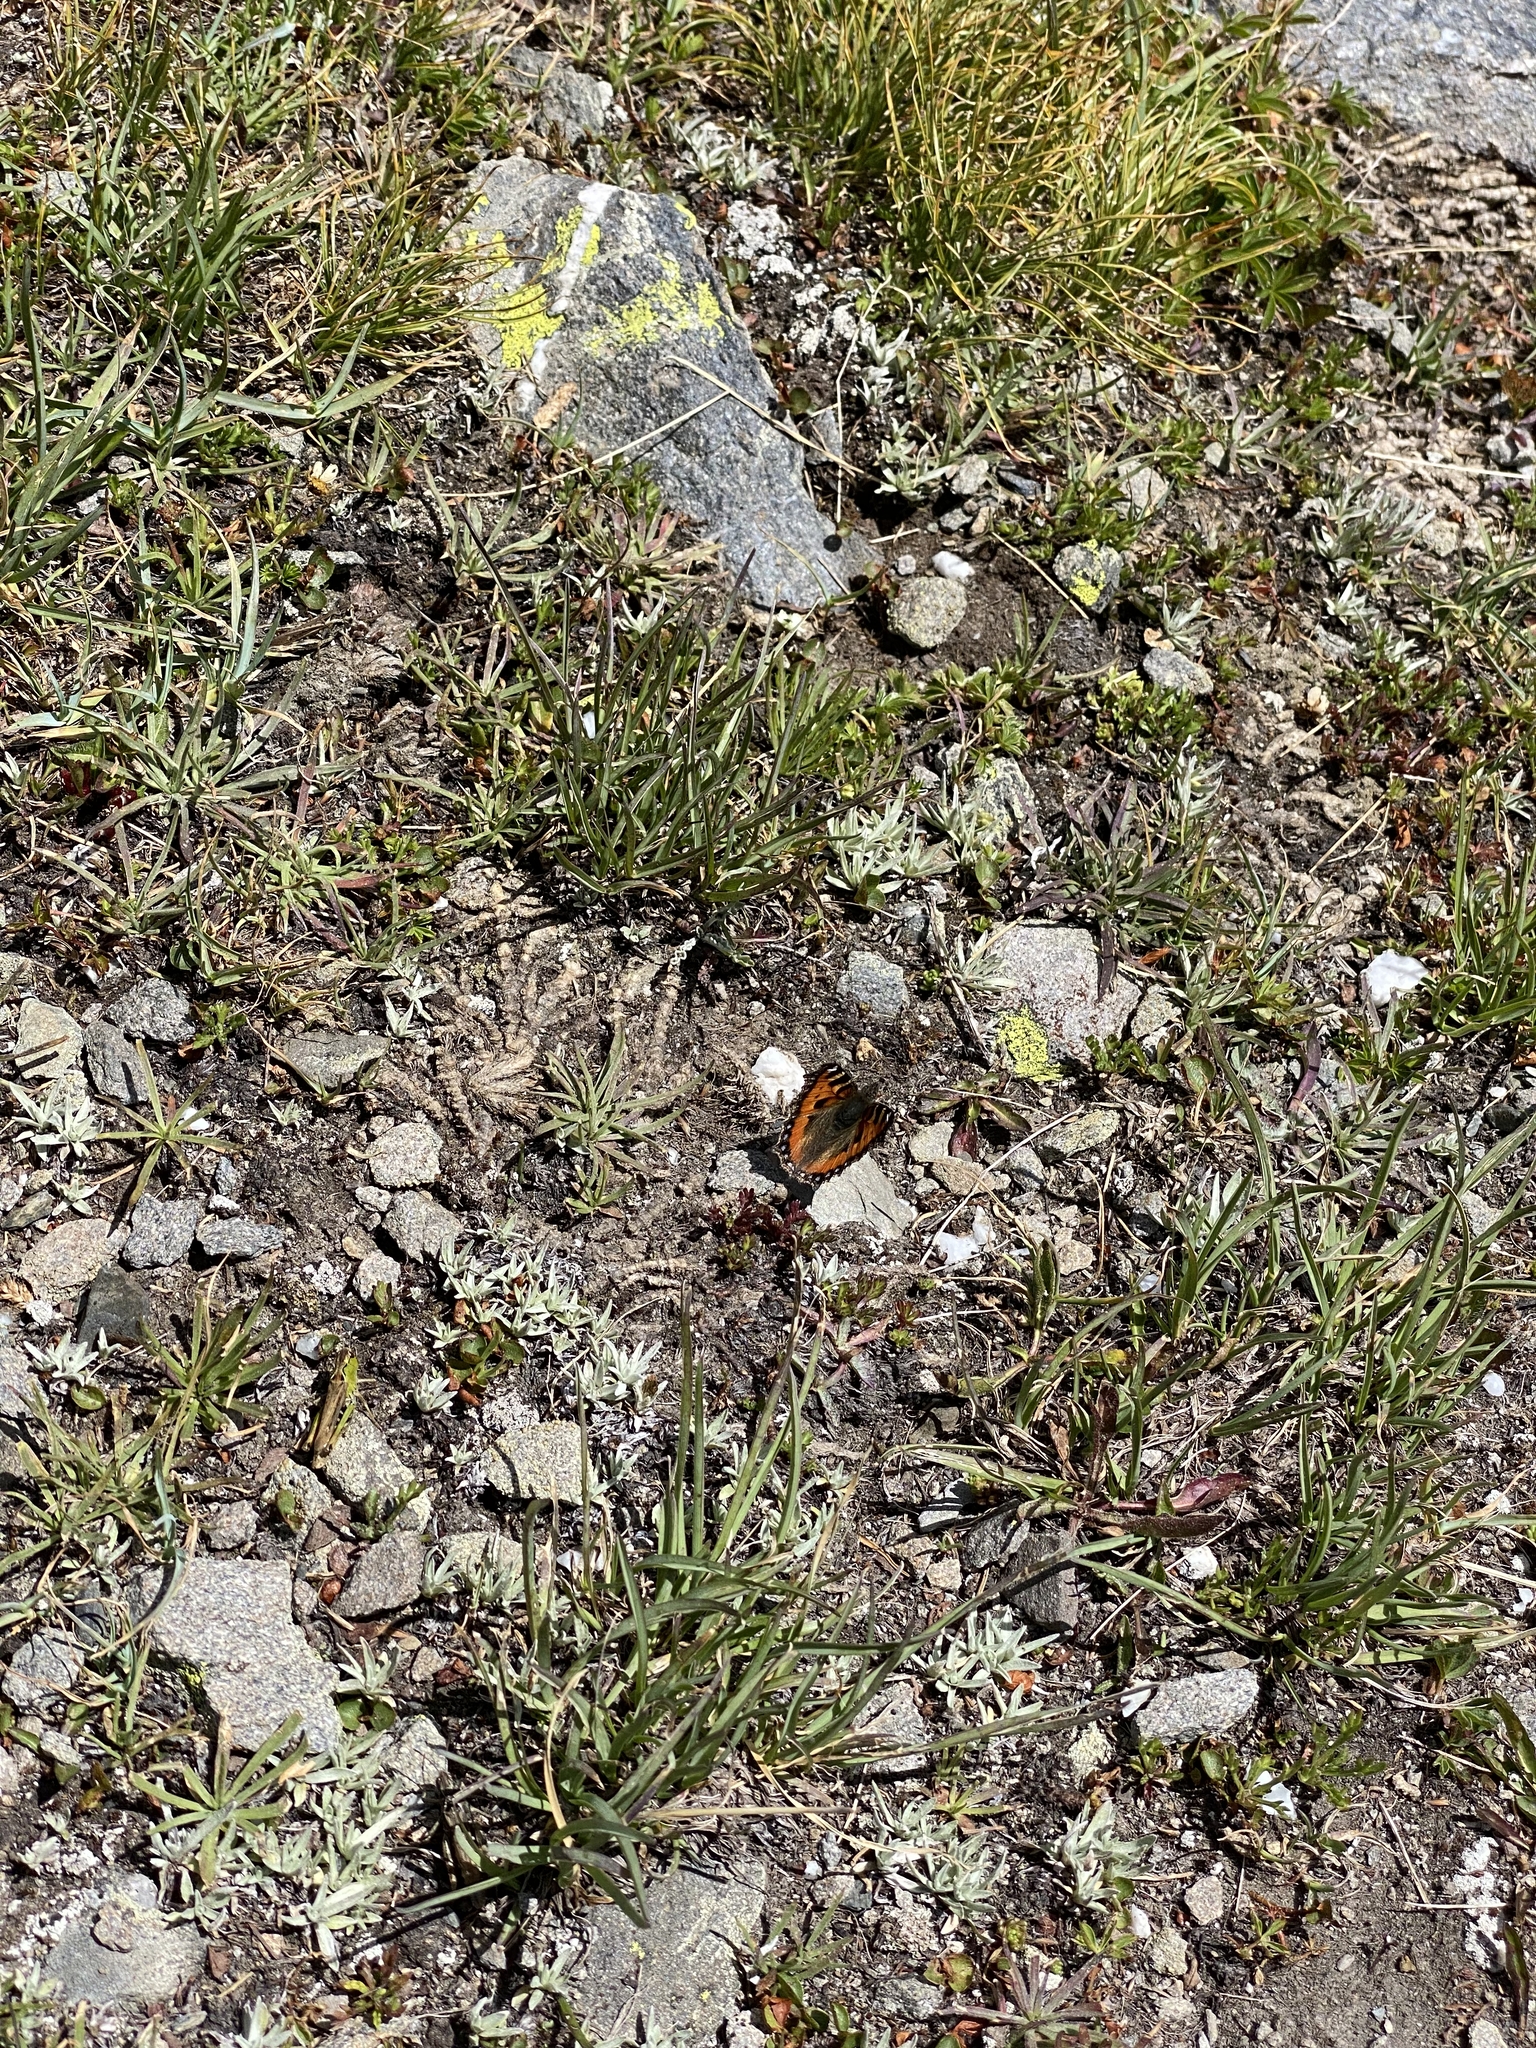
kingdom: Animalia
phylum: Arthropoda
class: Insecta
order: Lepidoptera
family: Nymphalidae
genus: Aglais
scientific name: Aglais urticae
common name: Small tortoiseshell
